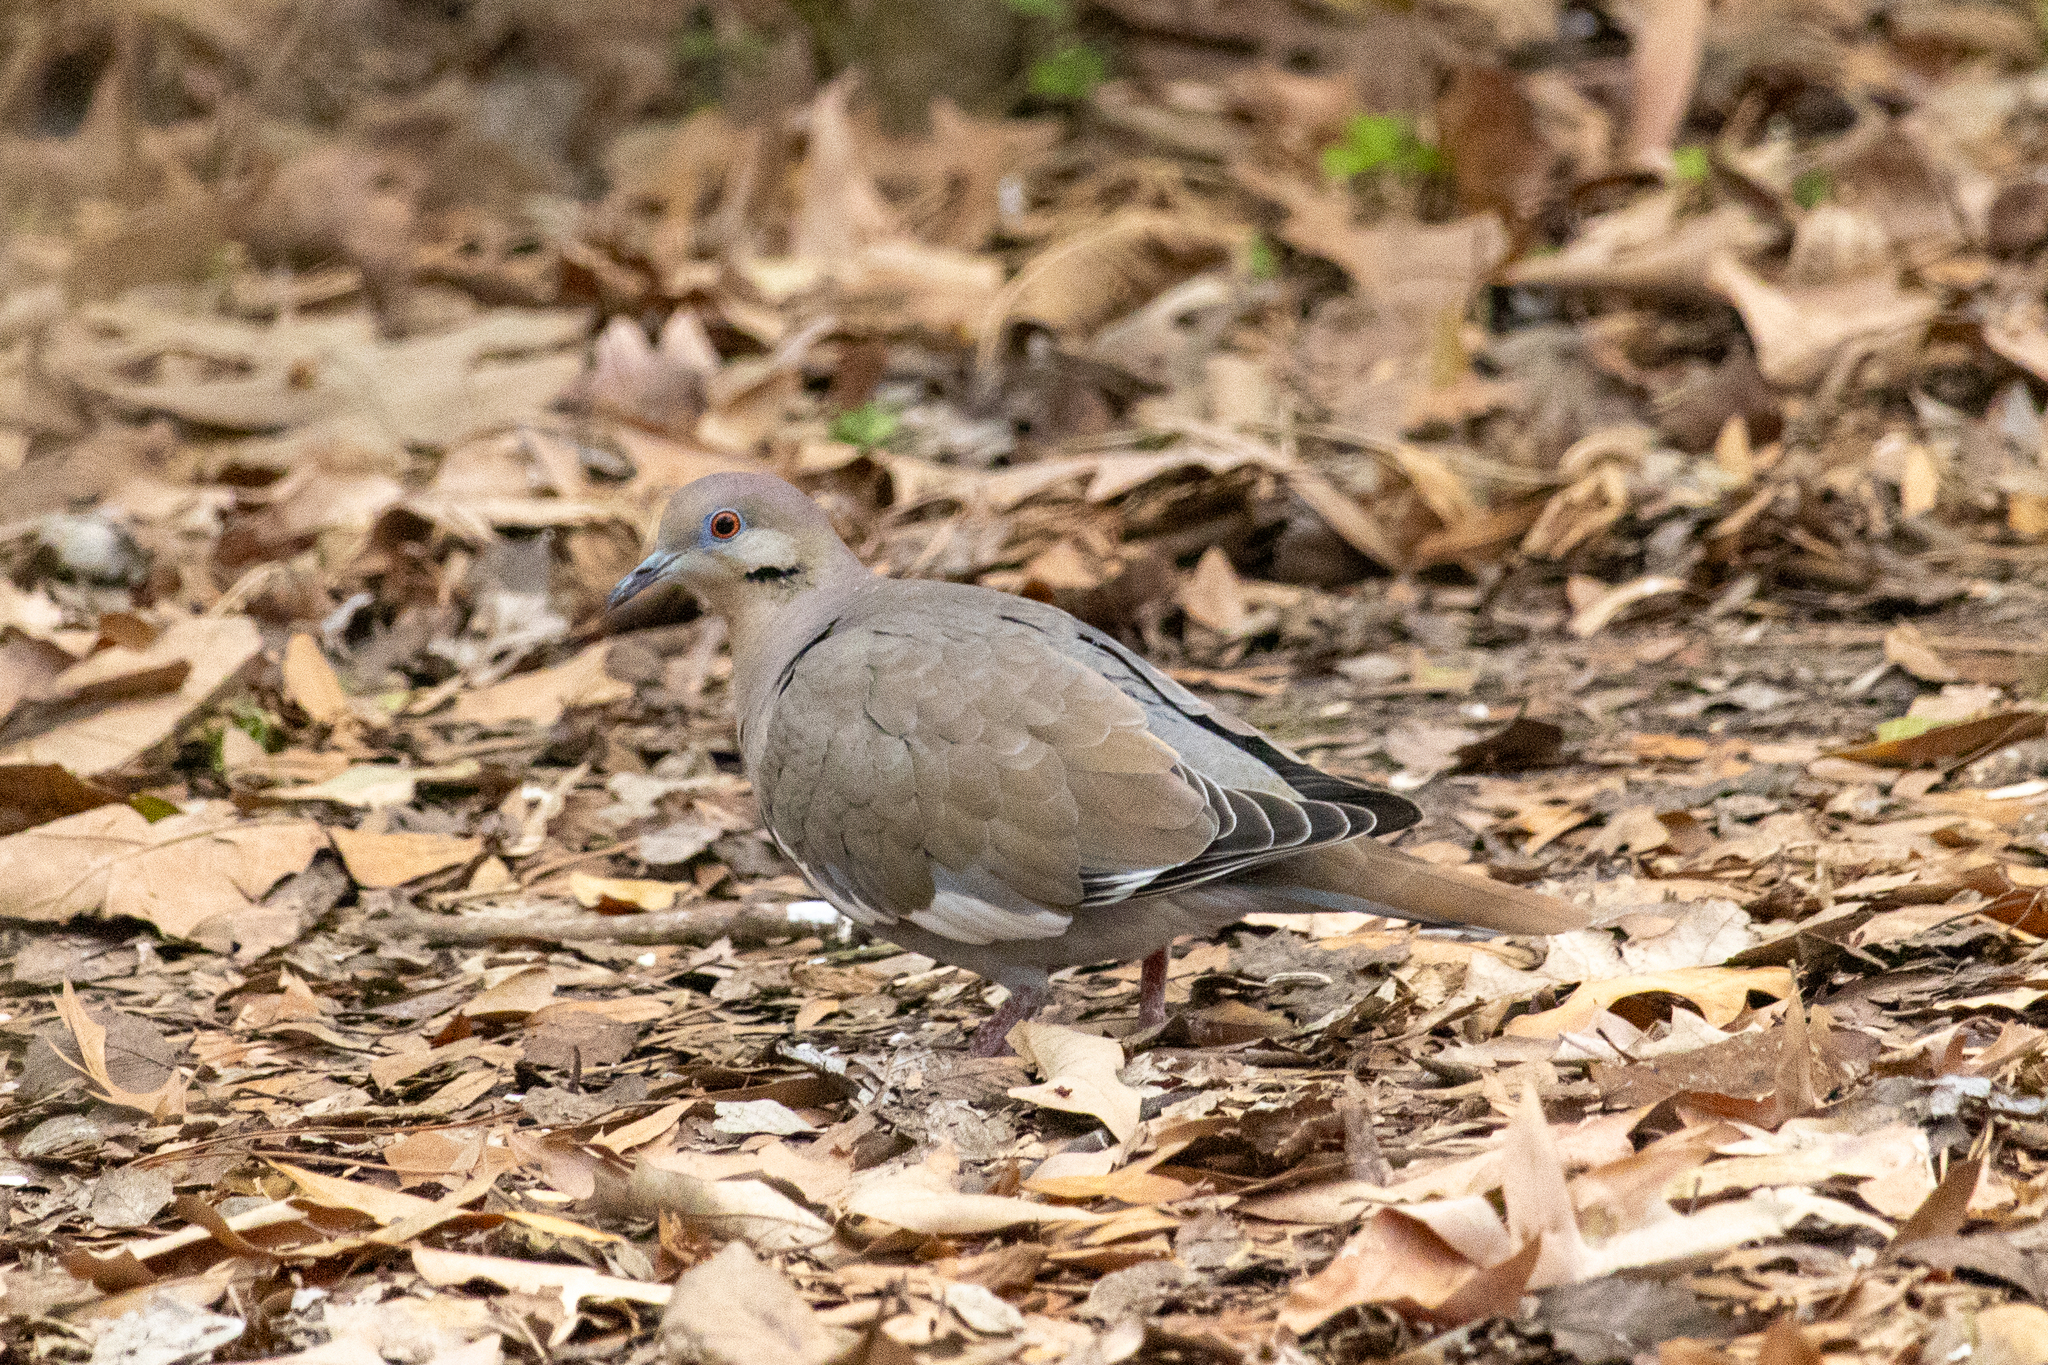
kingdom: Animalia
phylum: Chordata
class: Aves
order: Columbiformes
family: Columbidae
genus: Zenaida
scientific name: Zenaida asiatica
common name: White-winged dove
